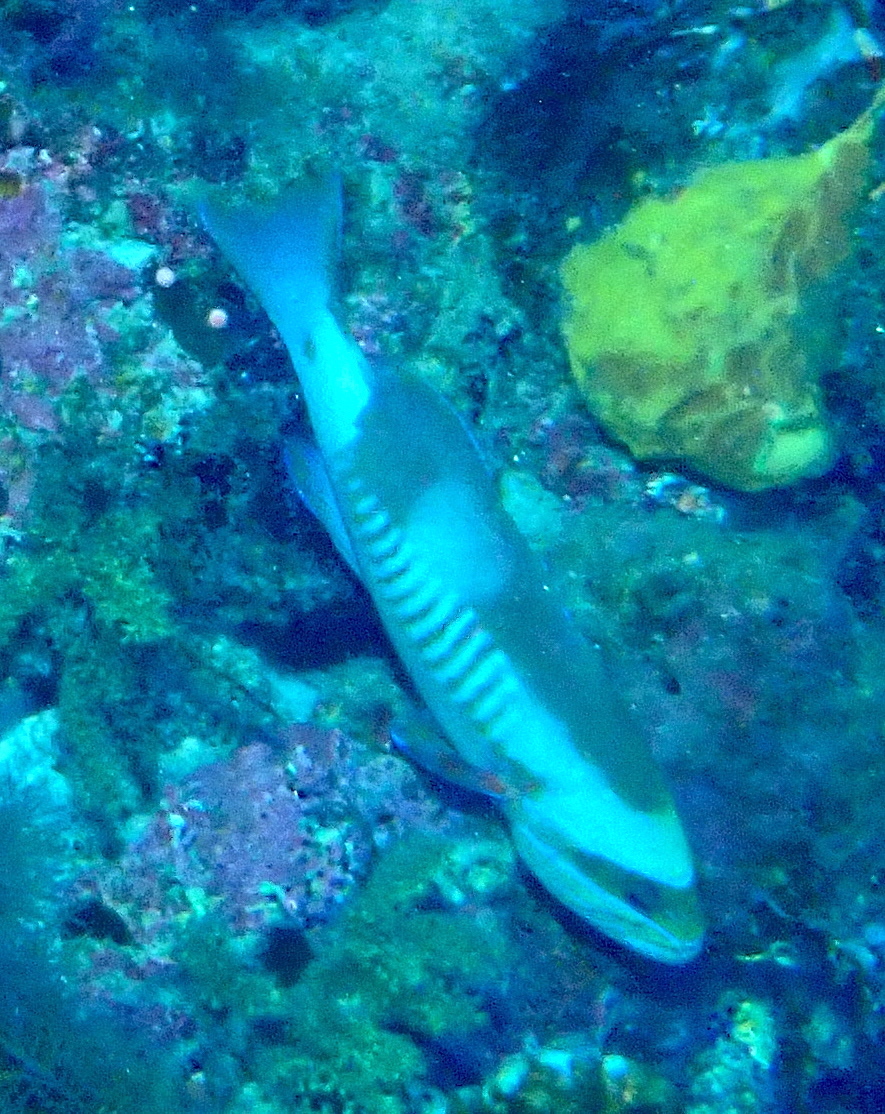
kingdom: Animalia
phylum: Chordata
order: Perciformes
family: Serranidae
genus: Gracila
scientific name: Gracila albomarginata
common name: White-margined grouper
